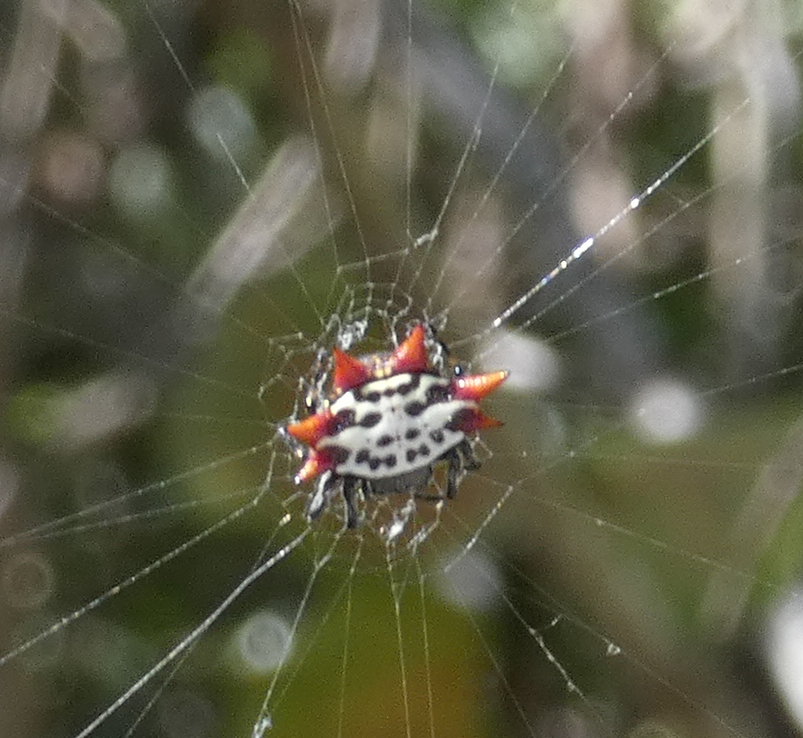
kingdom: Animalia
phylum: Arthropoda
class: Arachnida
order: Araneae
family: Araneidae
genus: Gasteracantha
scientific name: Gasteracantha cancriformis
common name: Orb weavers
